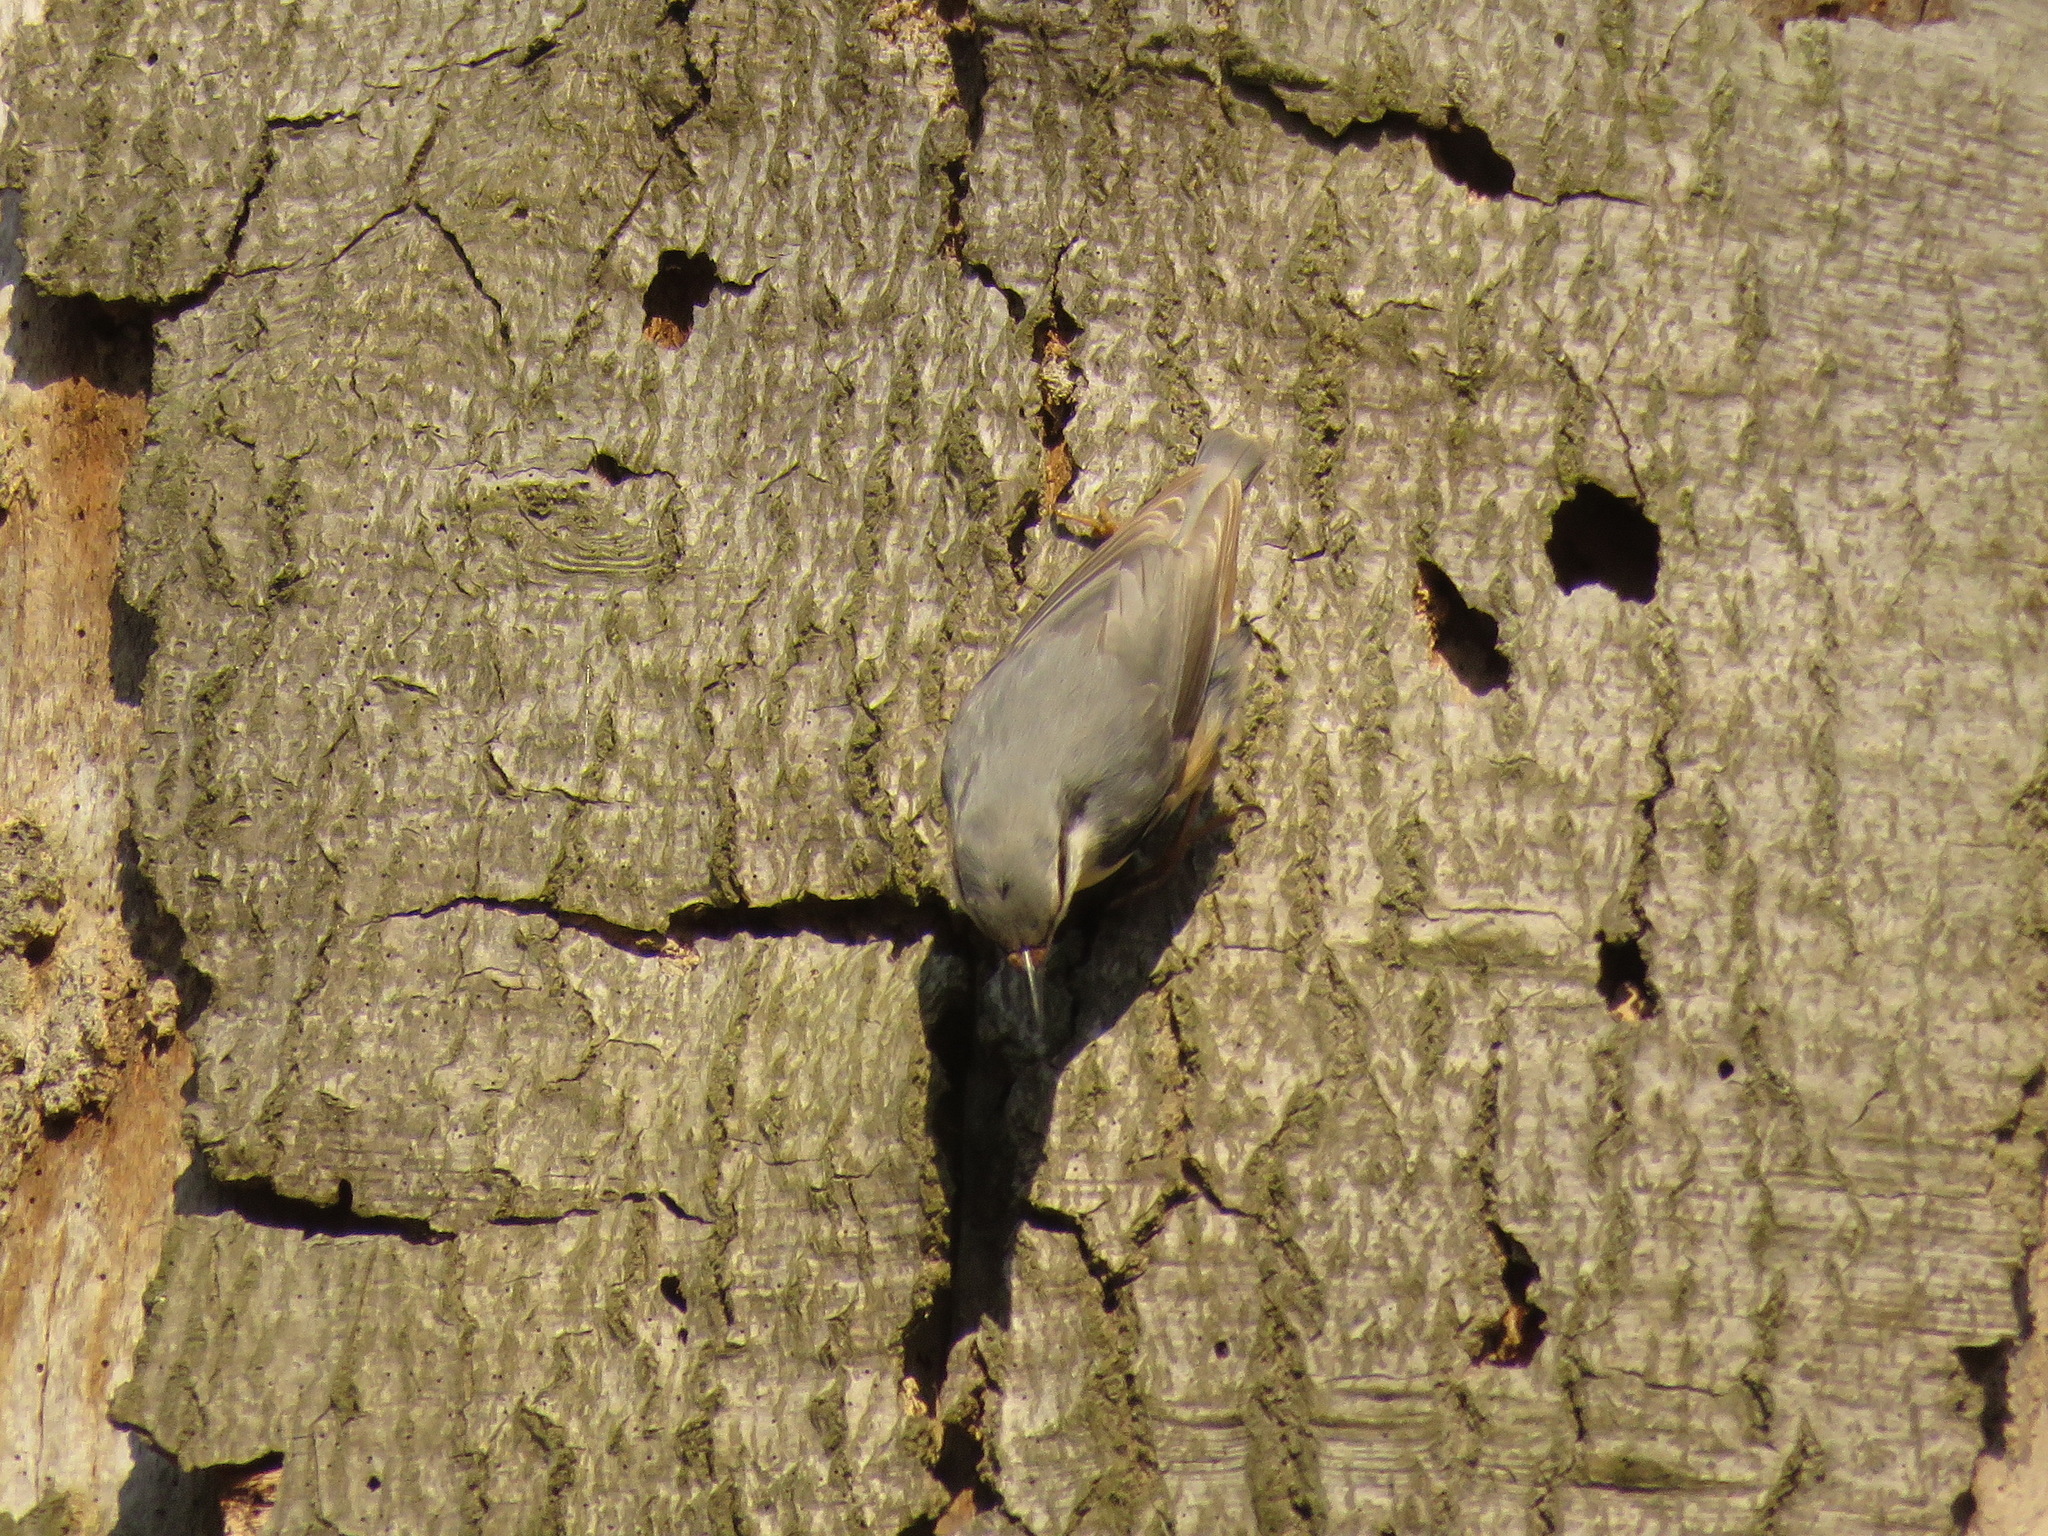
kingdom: Animalia
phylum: Chordata
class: Aves
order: Passeriformes
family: Sittidae
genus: Sitta
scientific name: Sitta europaea
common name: Eurasian nuthatch
